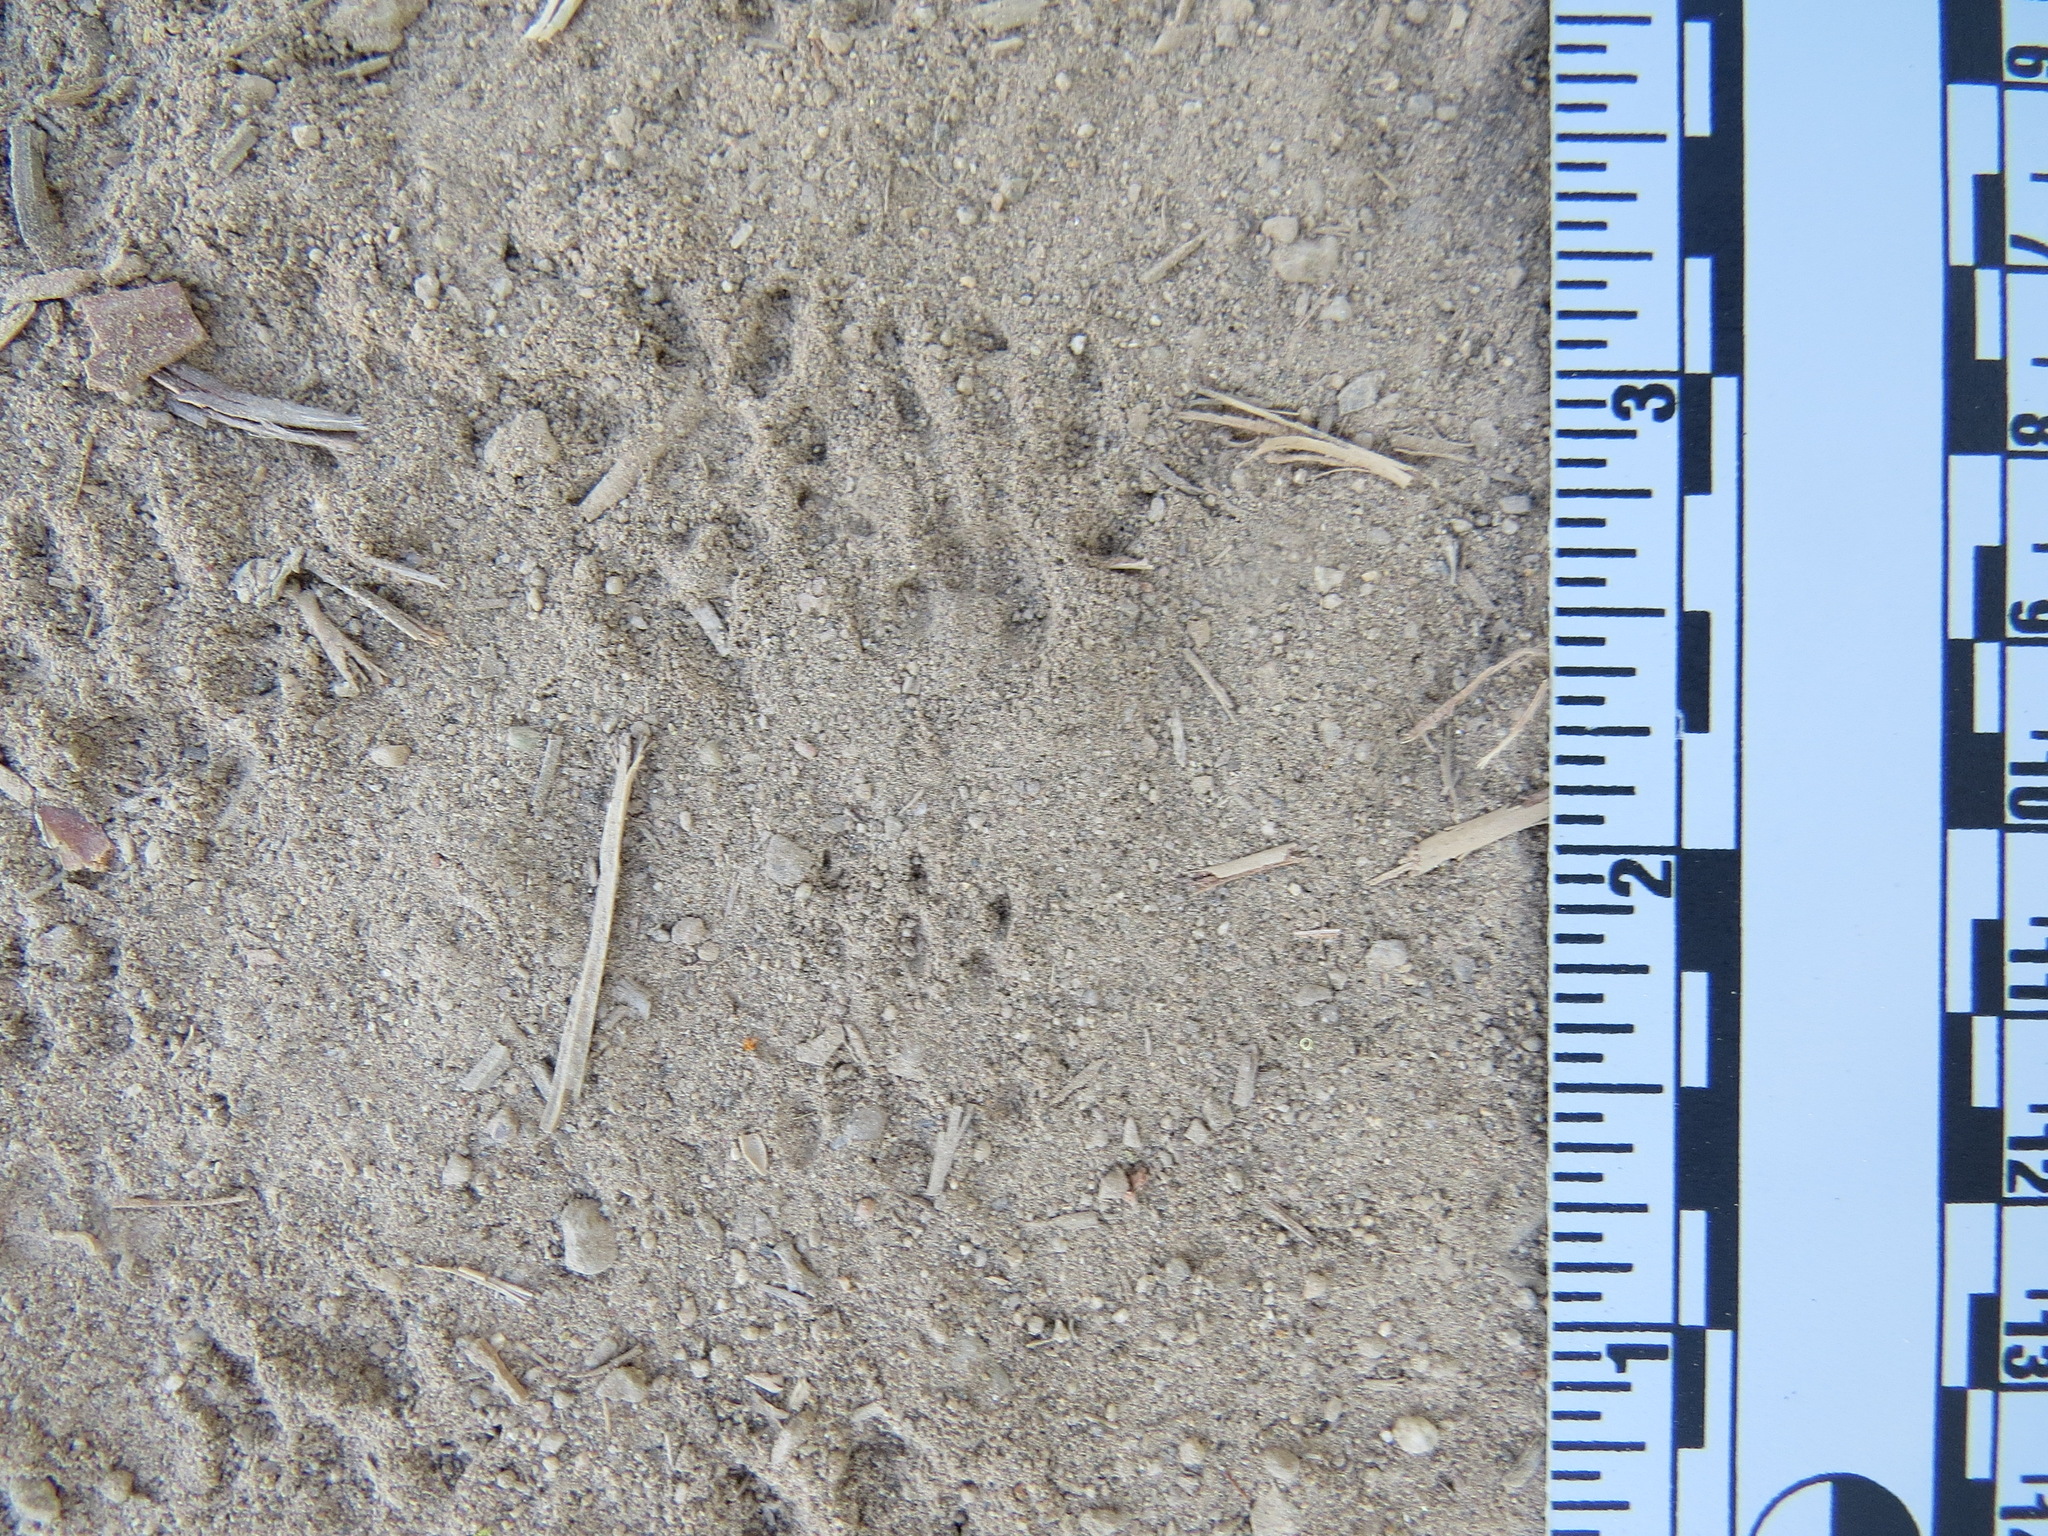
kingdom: Animalia
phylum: Chordata
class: Mammalia
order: Rodentia
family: Sciuridae
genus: Tamiasciurus
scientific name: Tamiasciurus douglasii
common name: Douglas's squirrel
